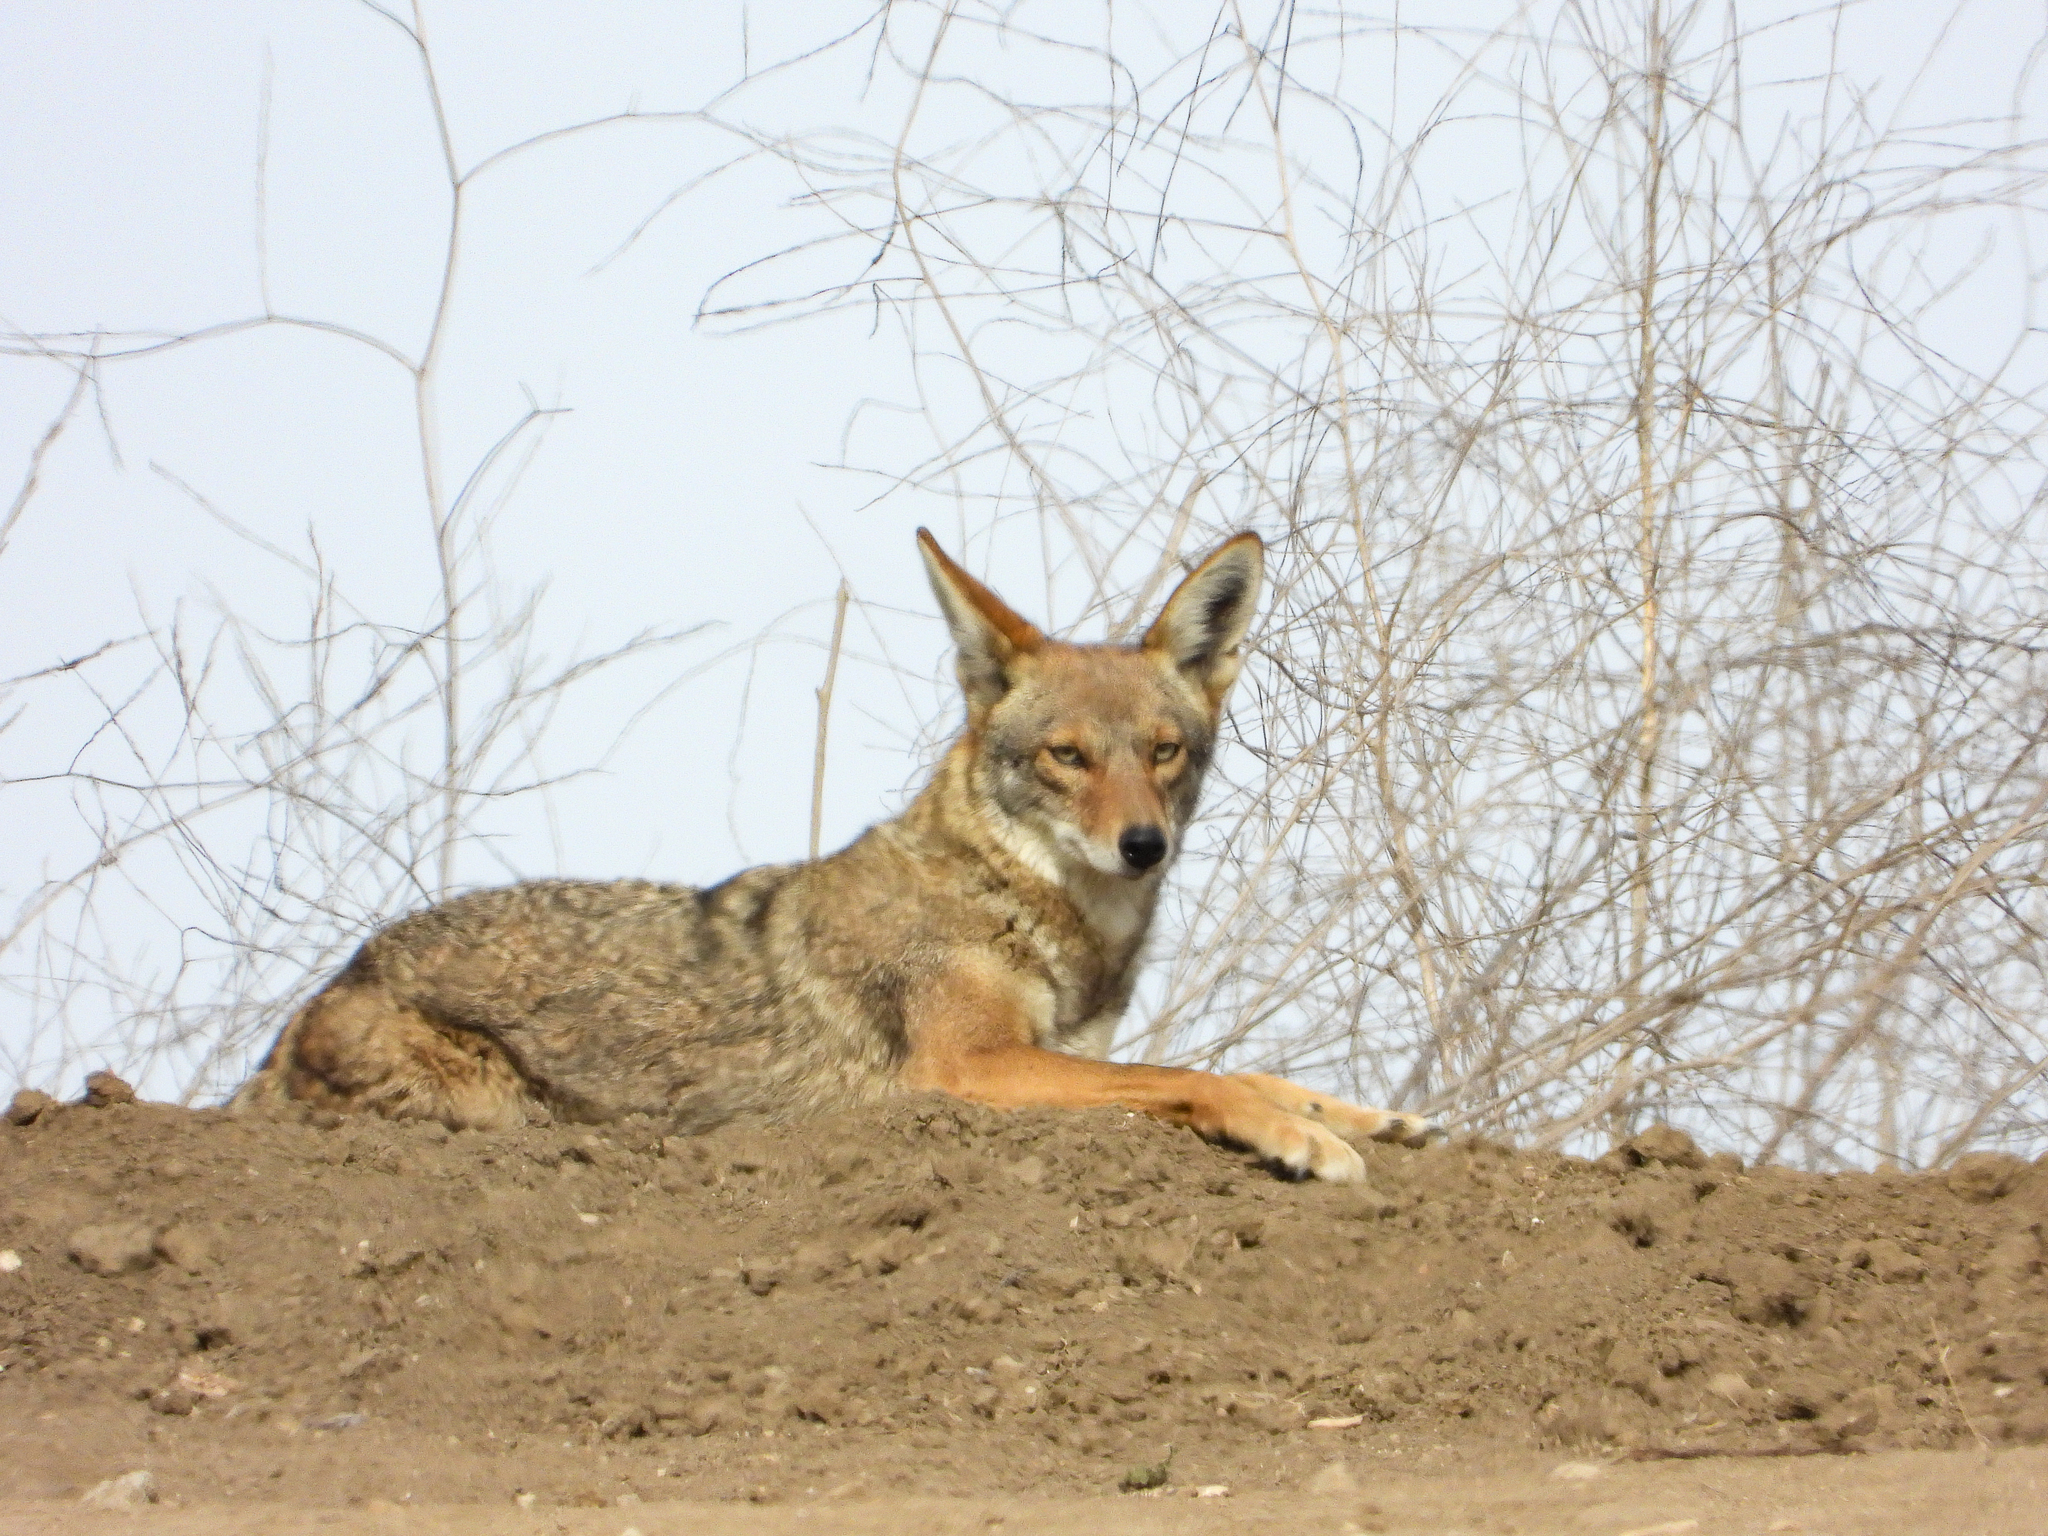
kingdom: Animalia
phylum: Chordata
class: Mammalia
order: Carnivora
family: Canidae
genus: Canis
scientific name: Canis latrans
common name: Coyote
